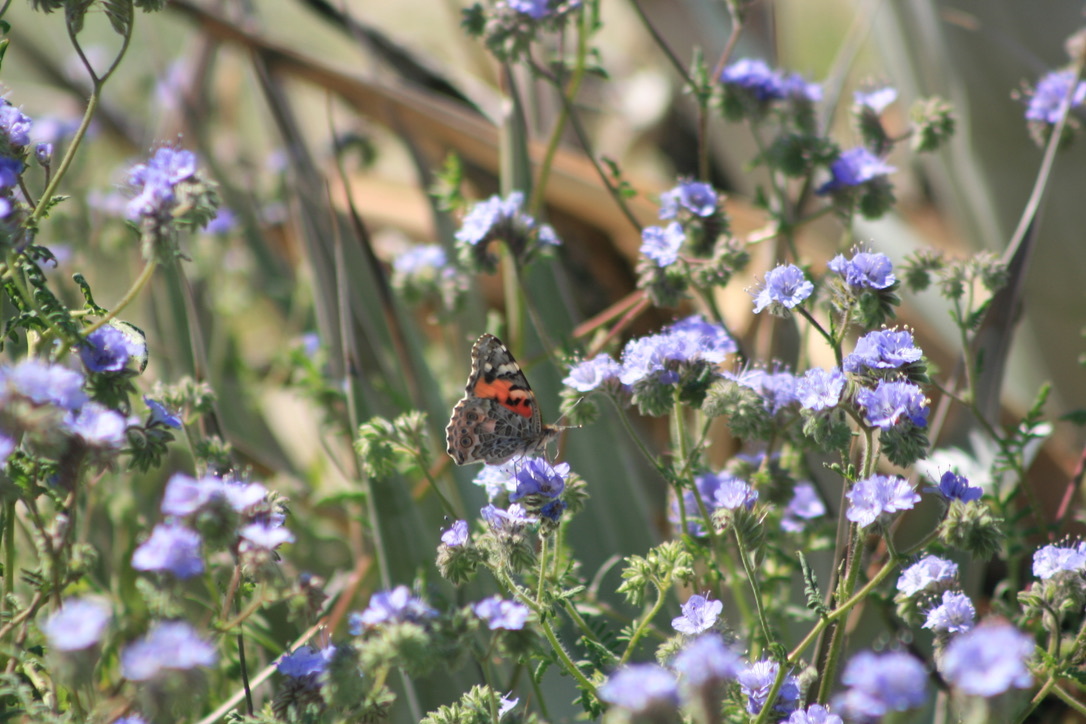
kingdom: Animalia
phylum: Arthropoda
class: Insecta
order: Lepidoptera
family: Nymphalidae
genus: Vanessa
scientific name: Vanessa cardui
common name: Painted lady
